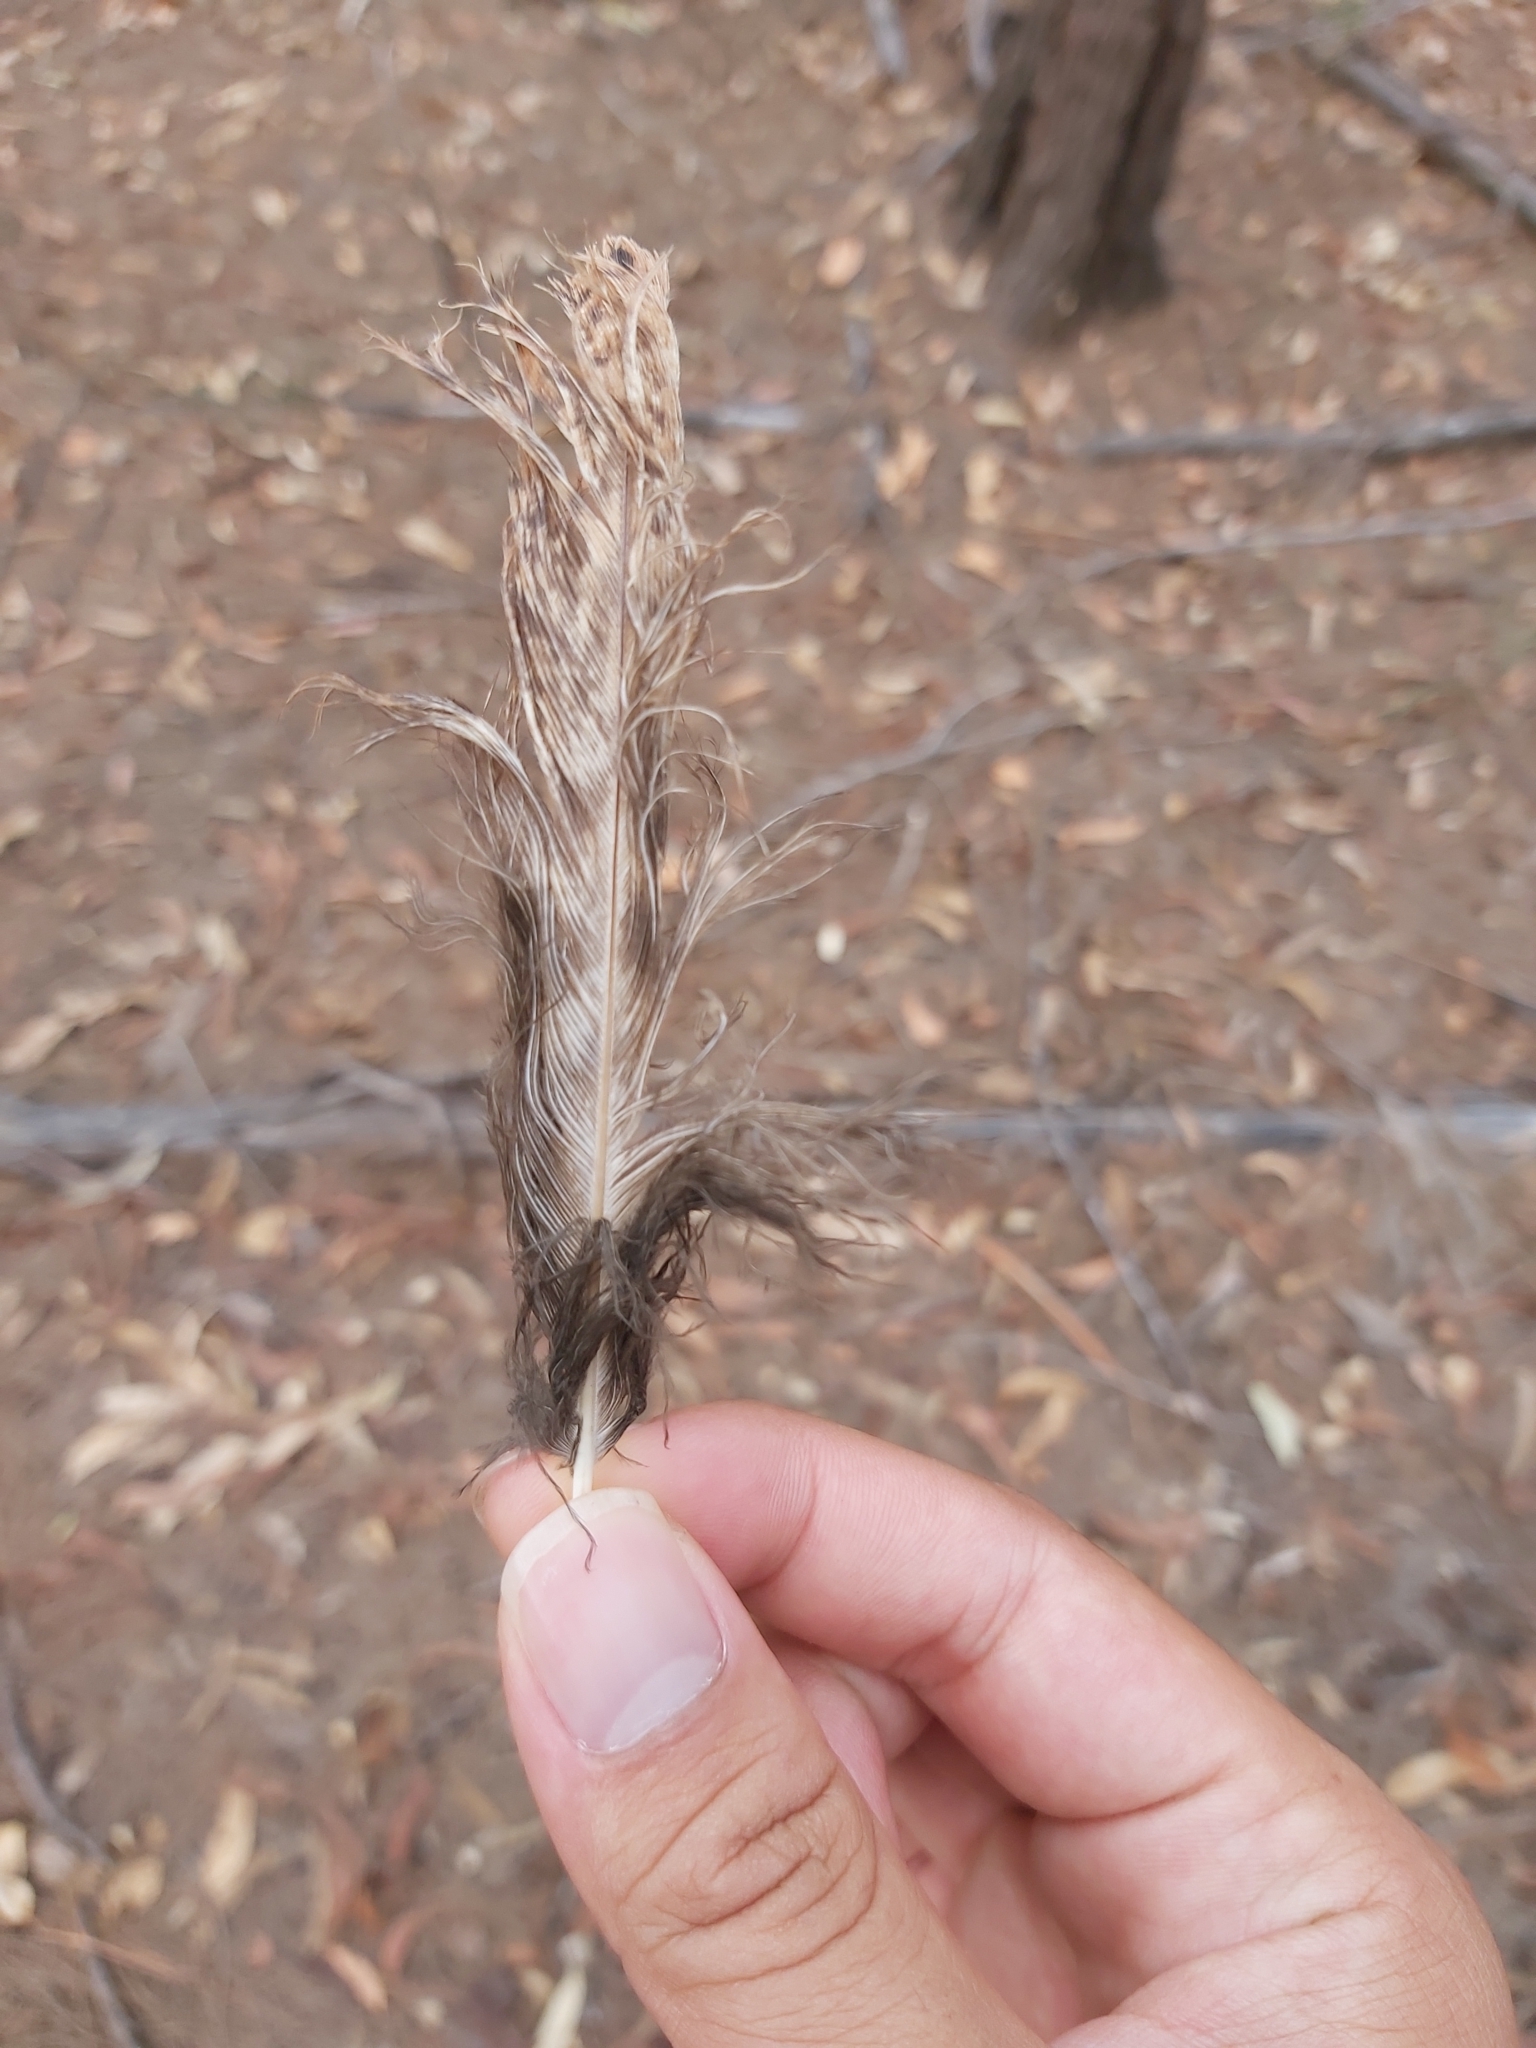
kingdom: Animalia
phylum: Chordata
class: Aves
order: Caprimulgiformes
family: Podargidae
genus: Podargus
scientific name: Podargus strigoides
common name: Tawny frogmouth
